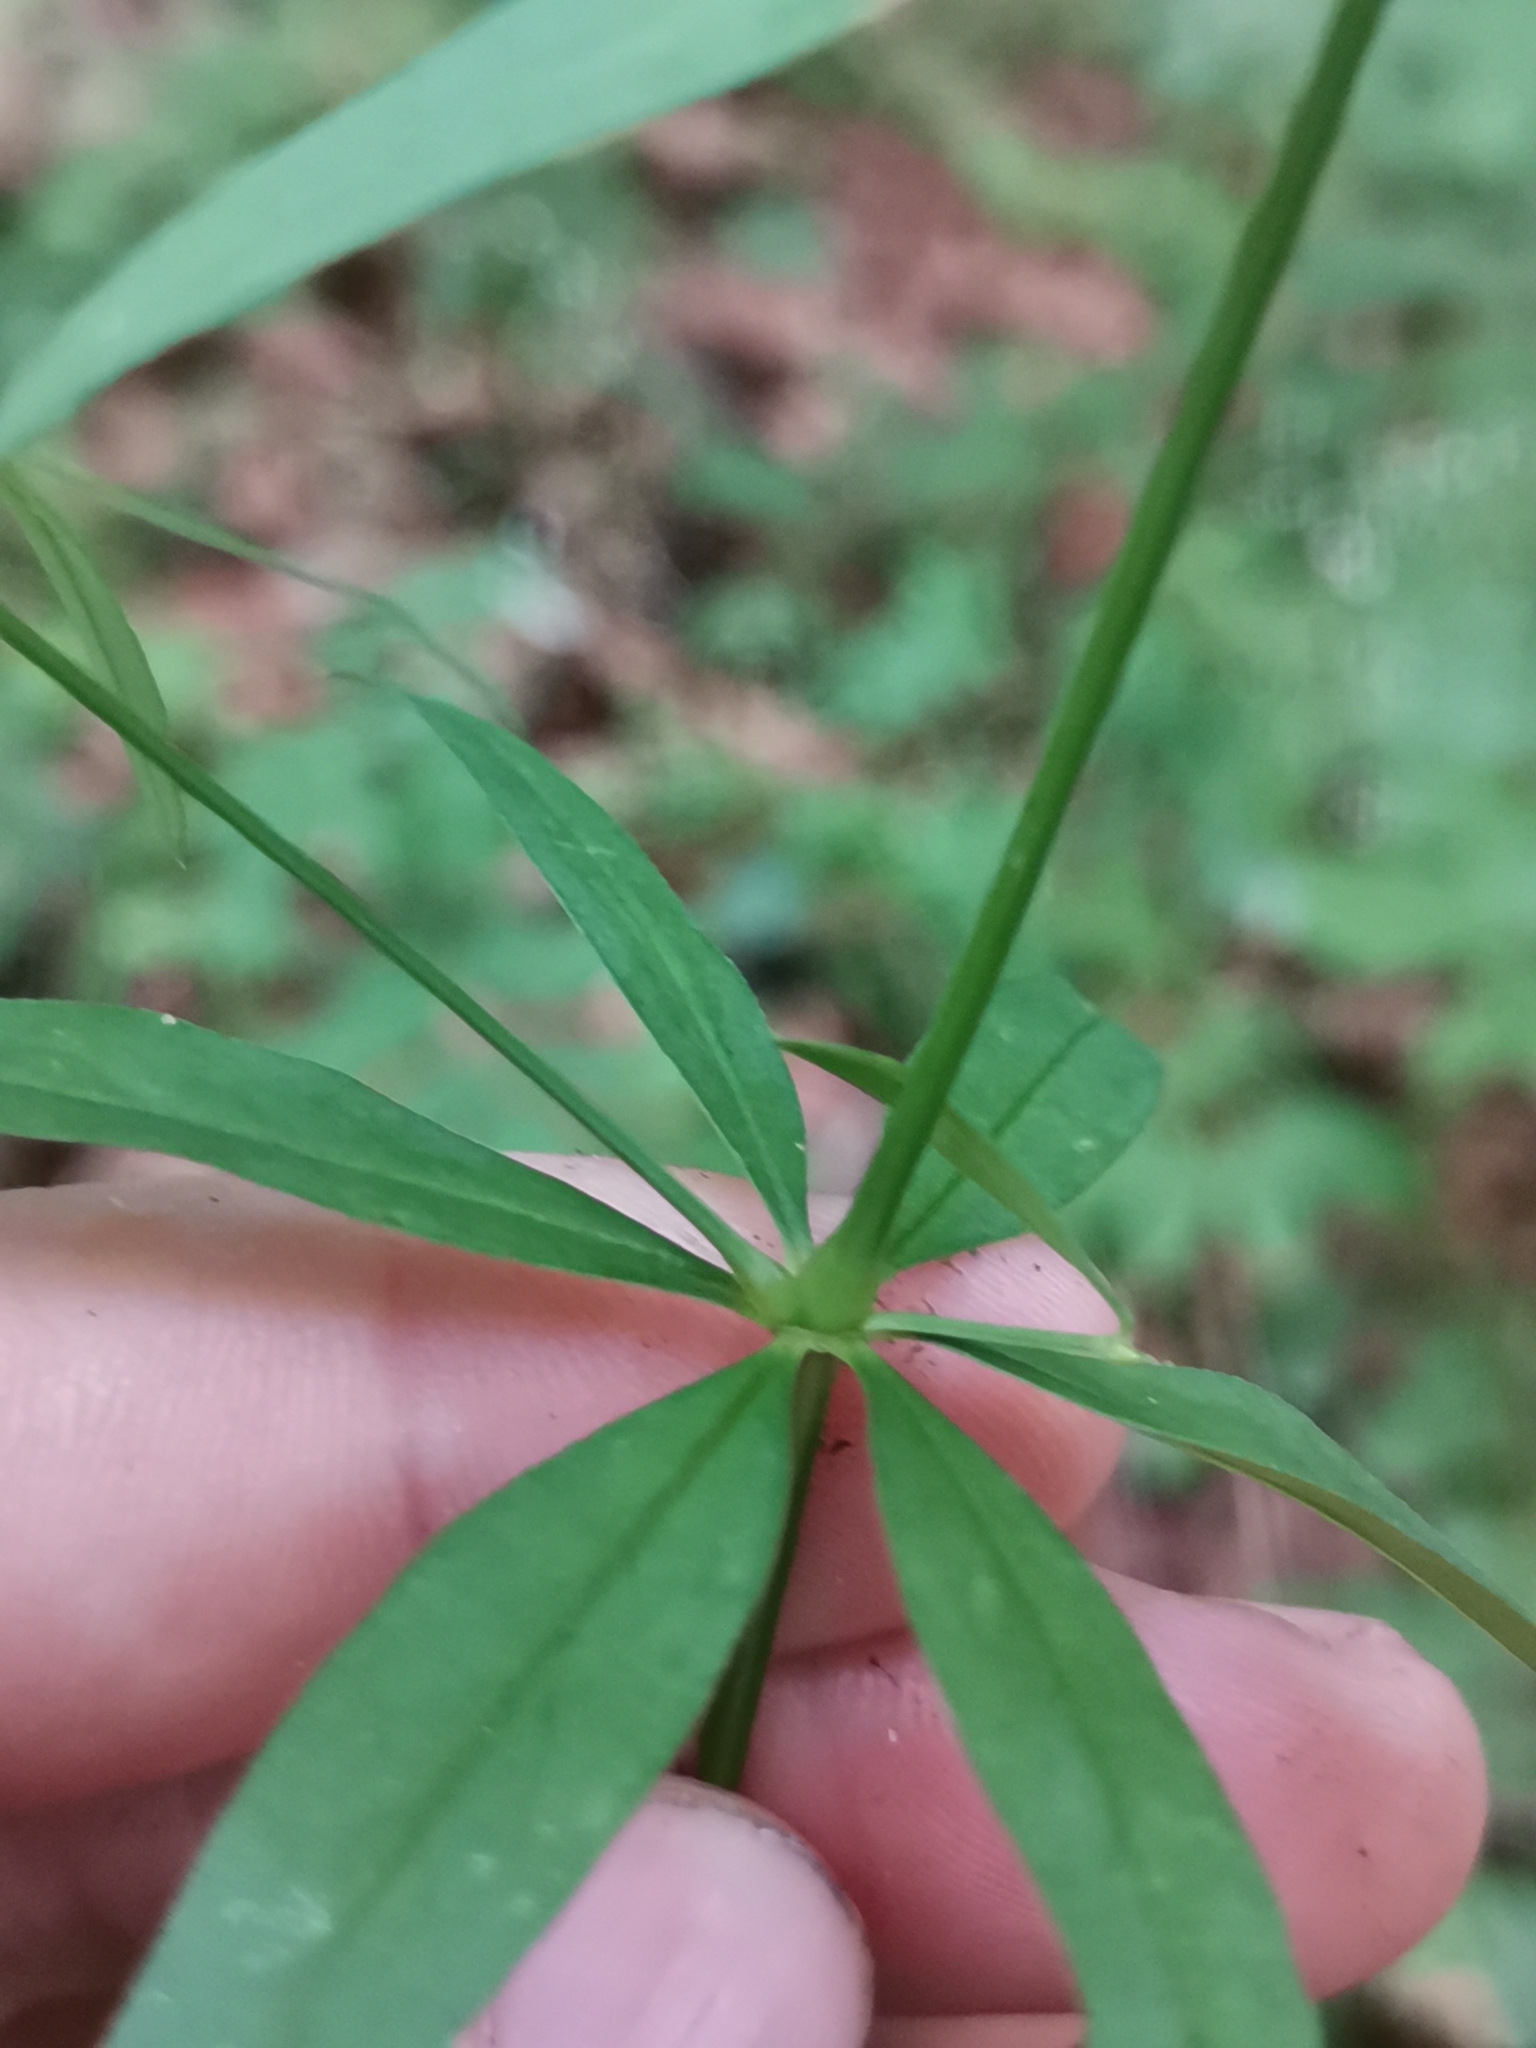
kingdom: Plantae
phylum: Tracheophyta
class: Magnoliopsida
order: Gentianales
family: Rubiaceae
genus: Galium
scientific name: Galium intermedium
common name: Bedstraw
